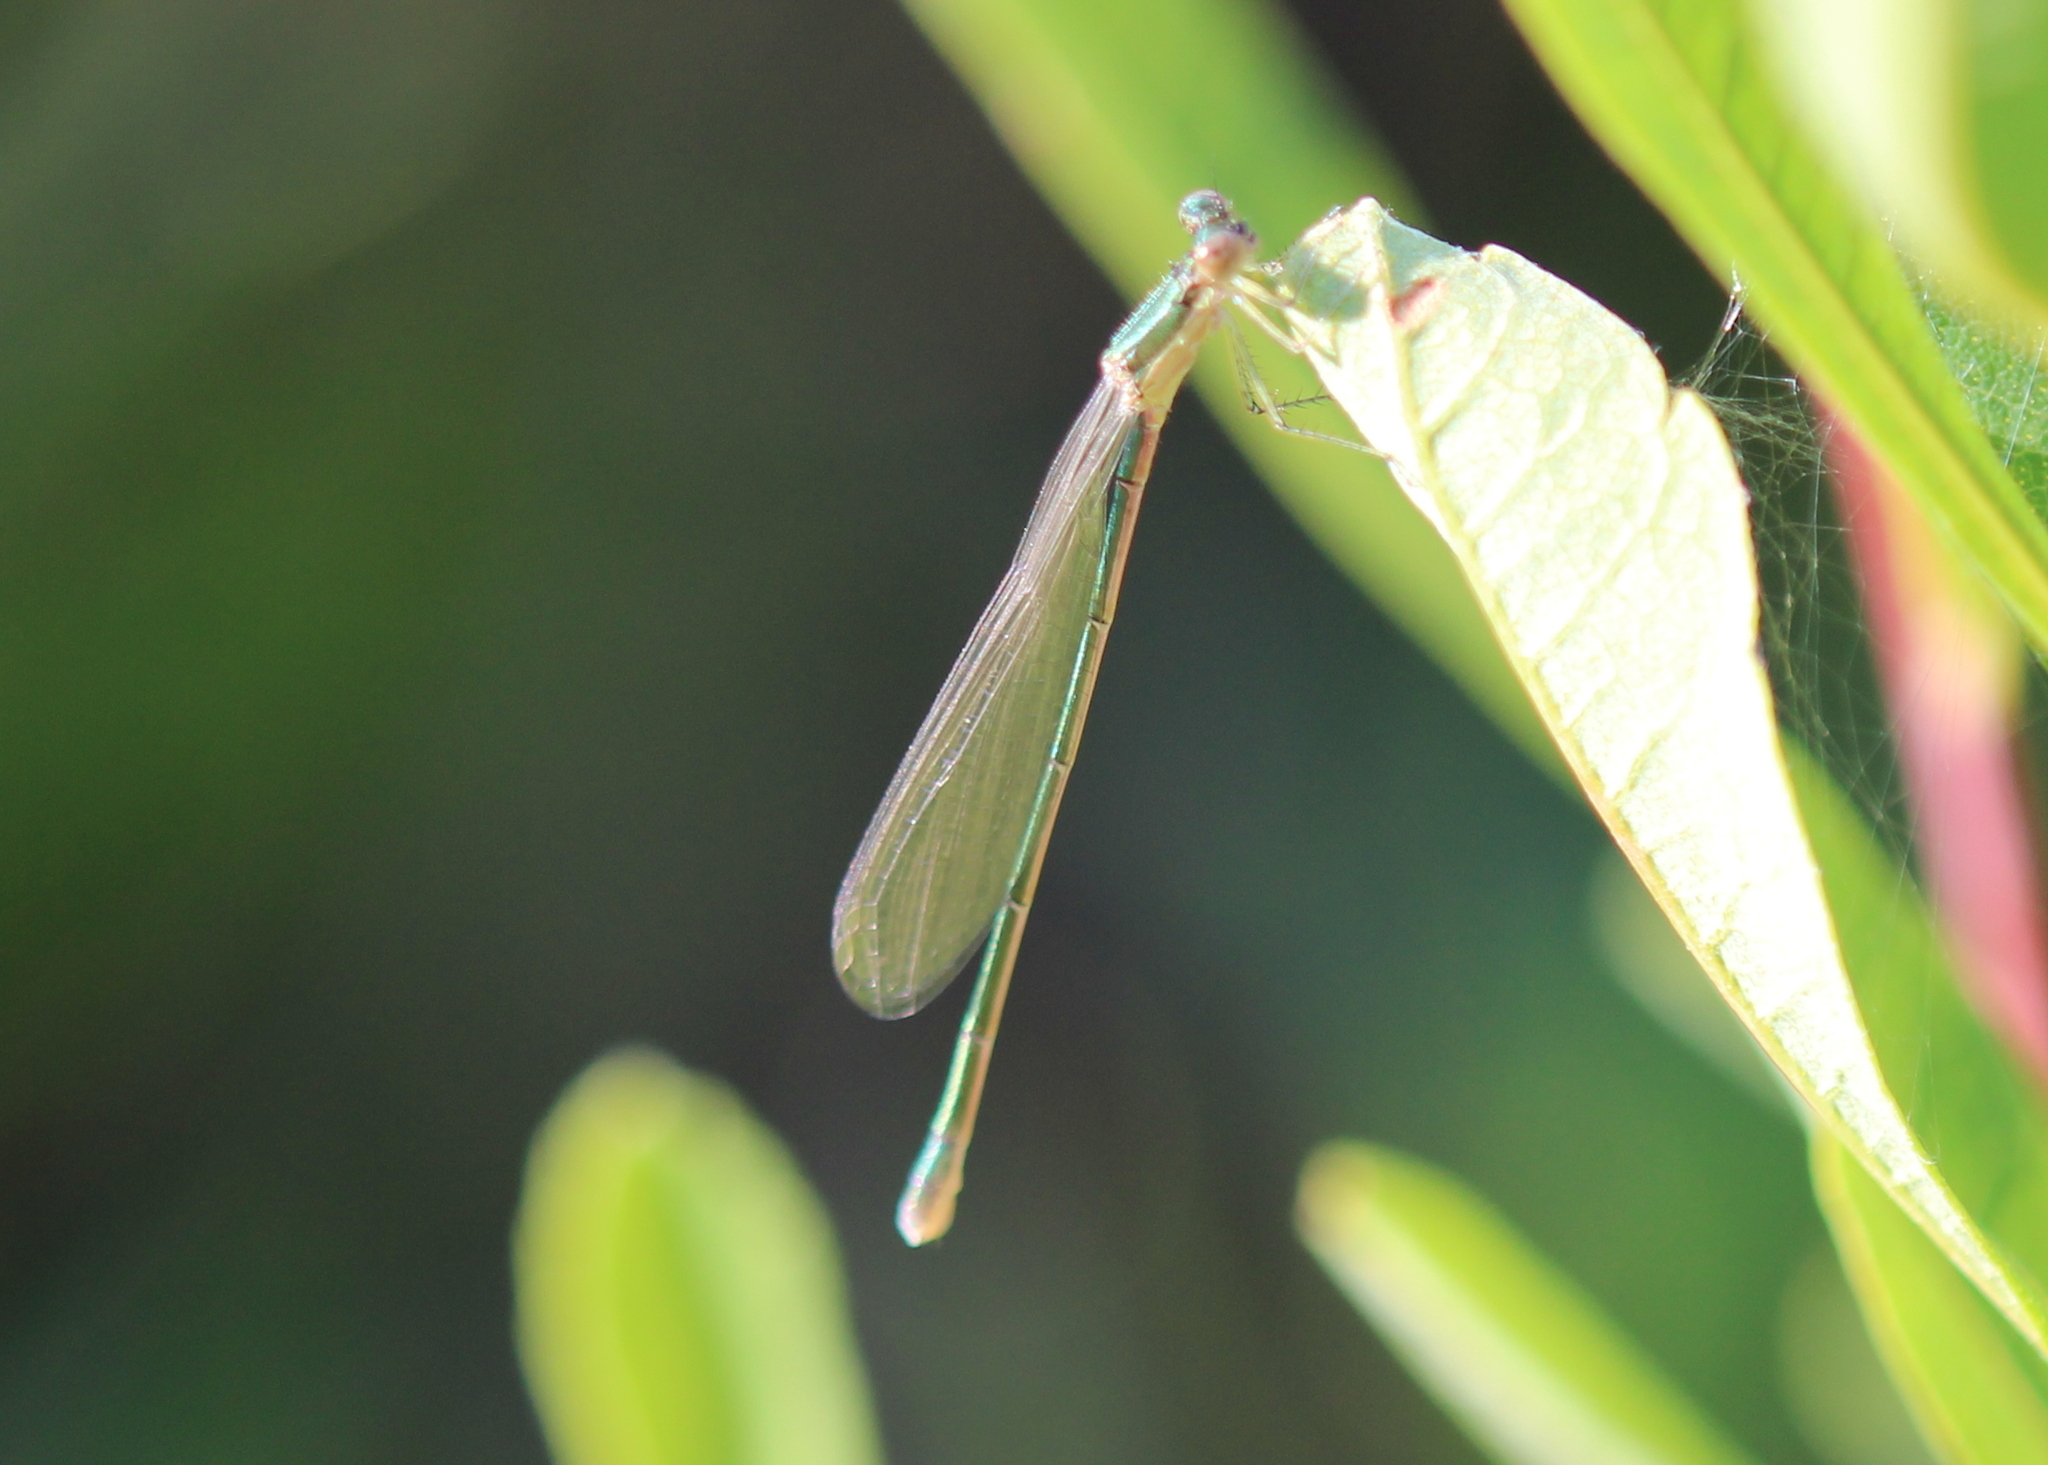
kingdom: Animalia
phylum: Arthropoda
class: Insecta
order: Odonata
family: Coenagrionidae
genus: Nehalennia
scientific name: Nehalennia irene
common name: Sedge sprite
